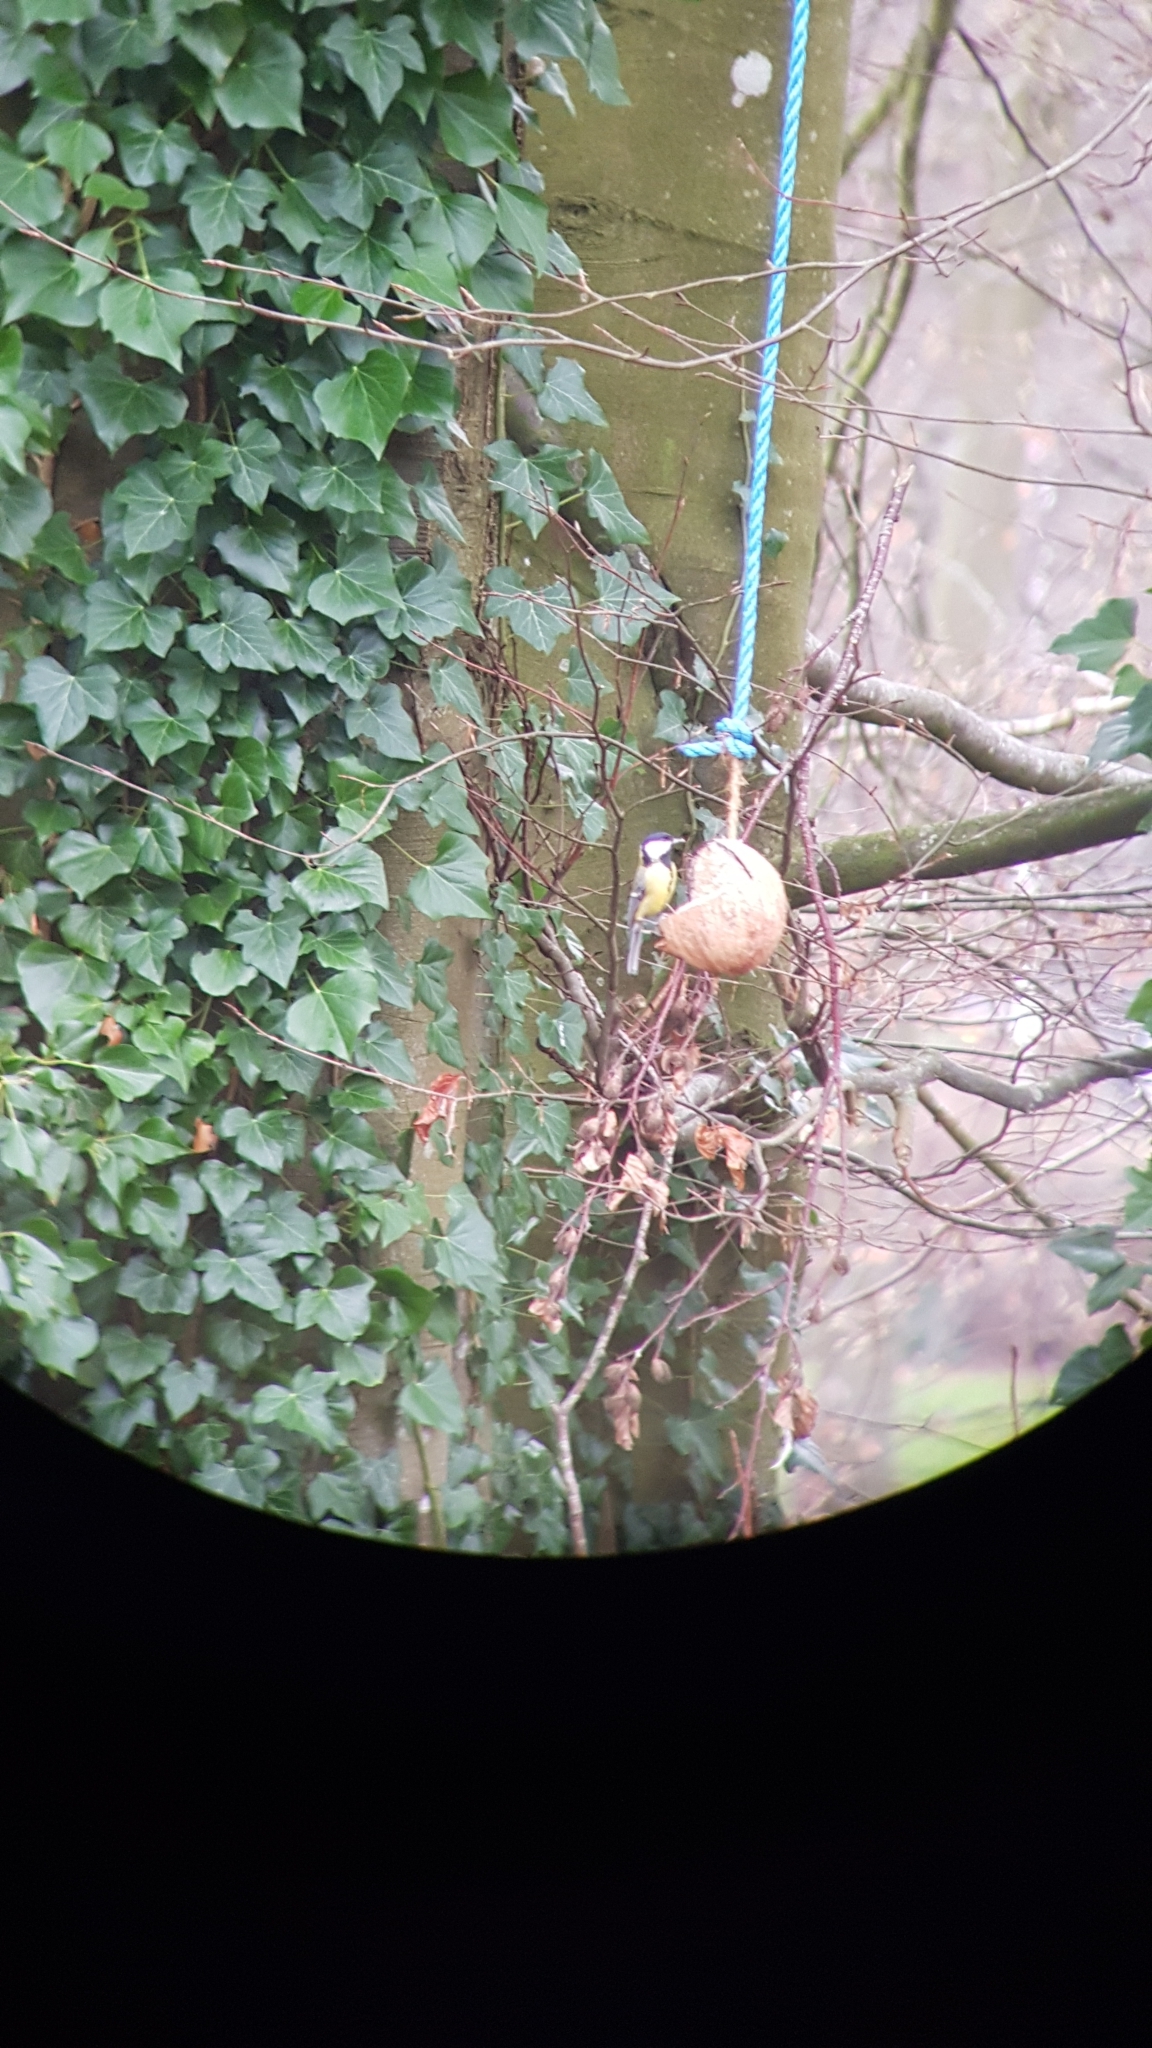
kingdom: Animalia
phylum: Chordata
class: Aves
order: Passeriformes
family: Paridae
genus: Parus
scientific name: Parus major
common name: Great tit
